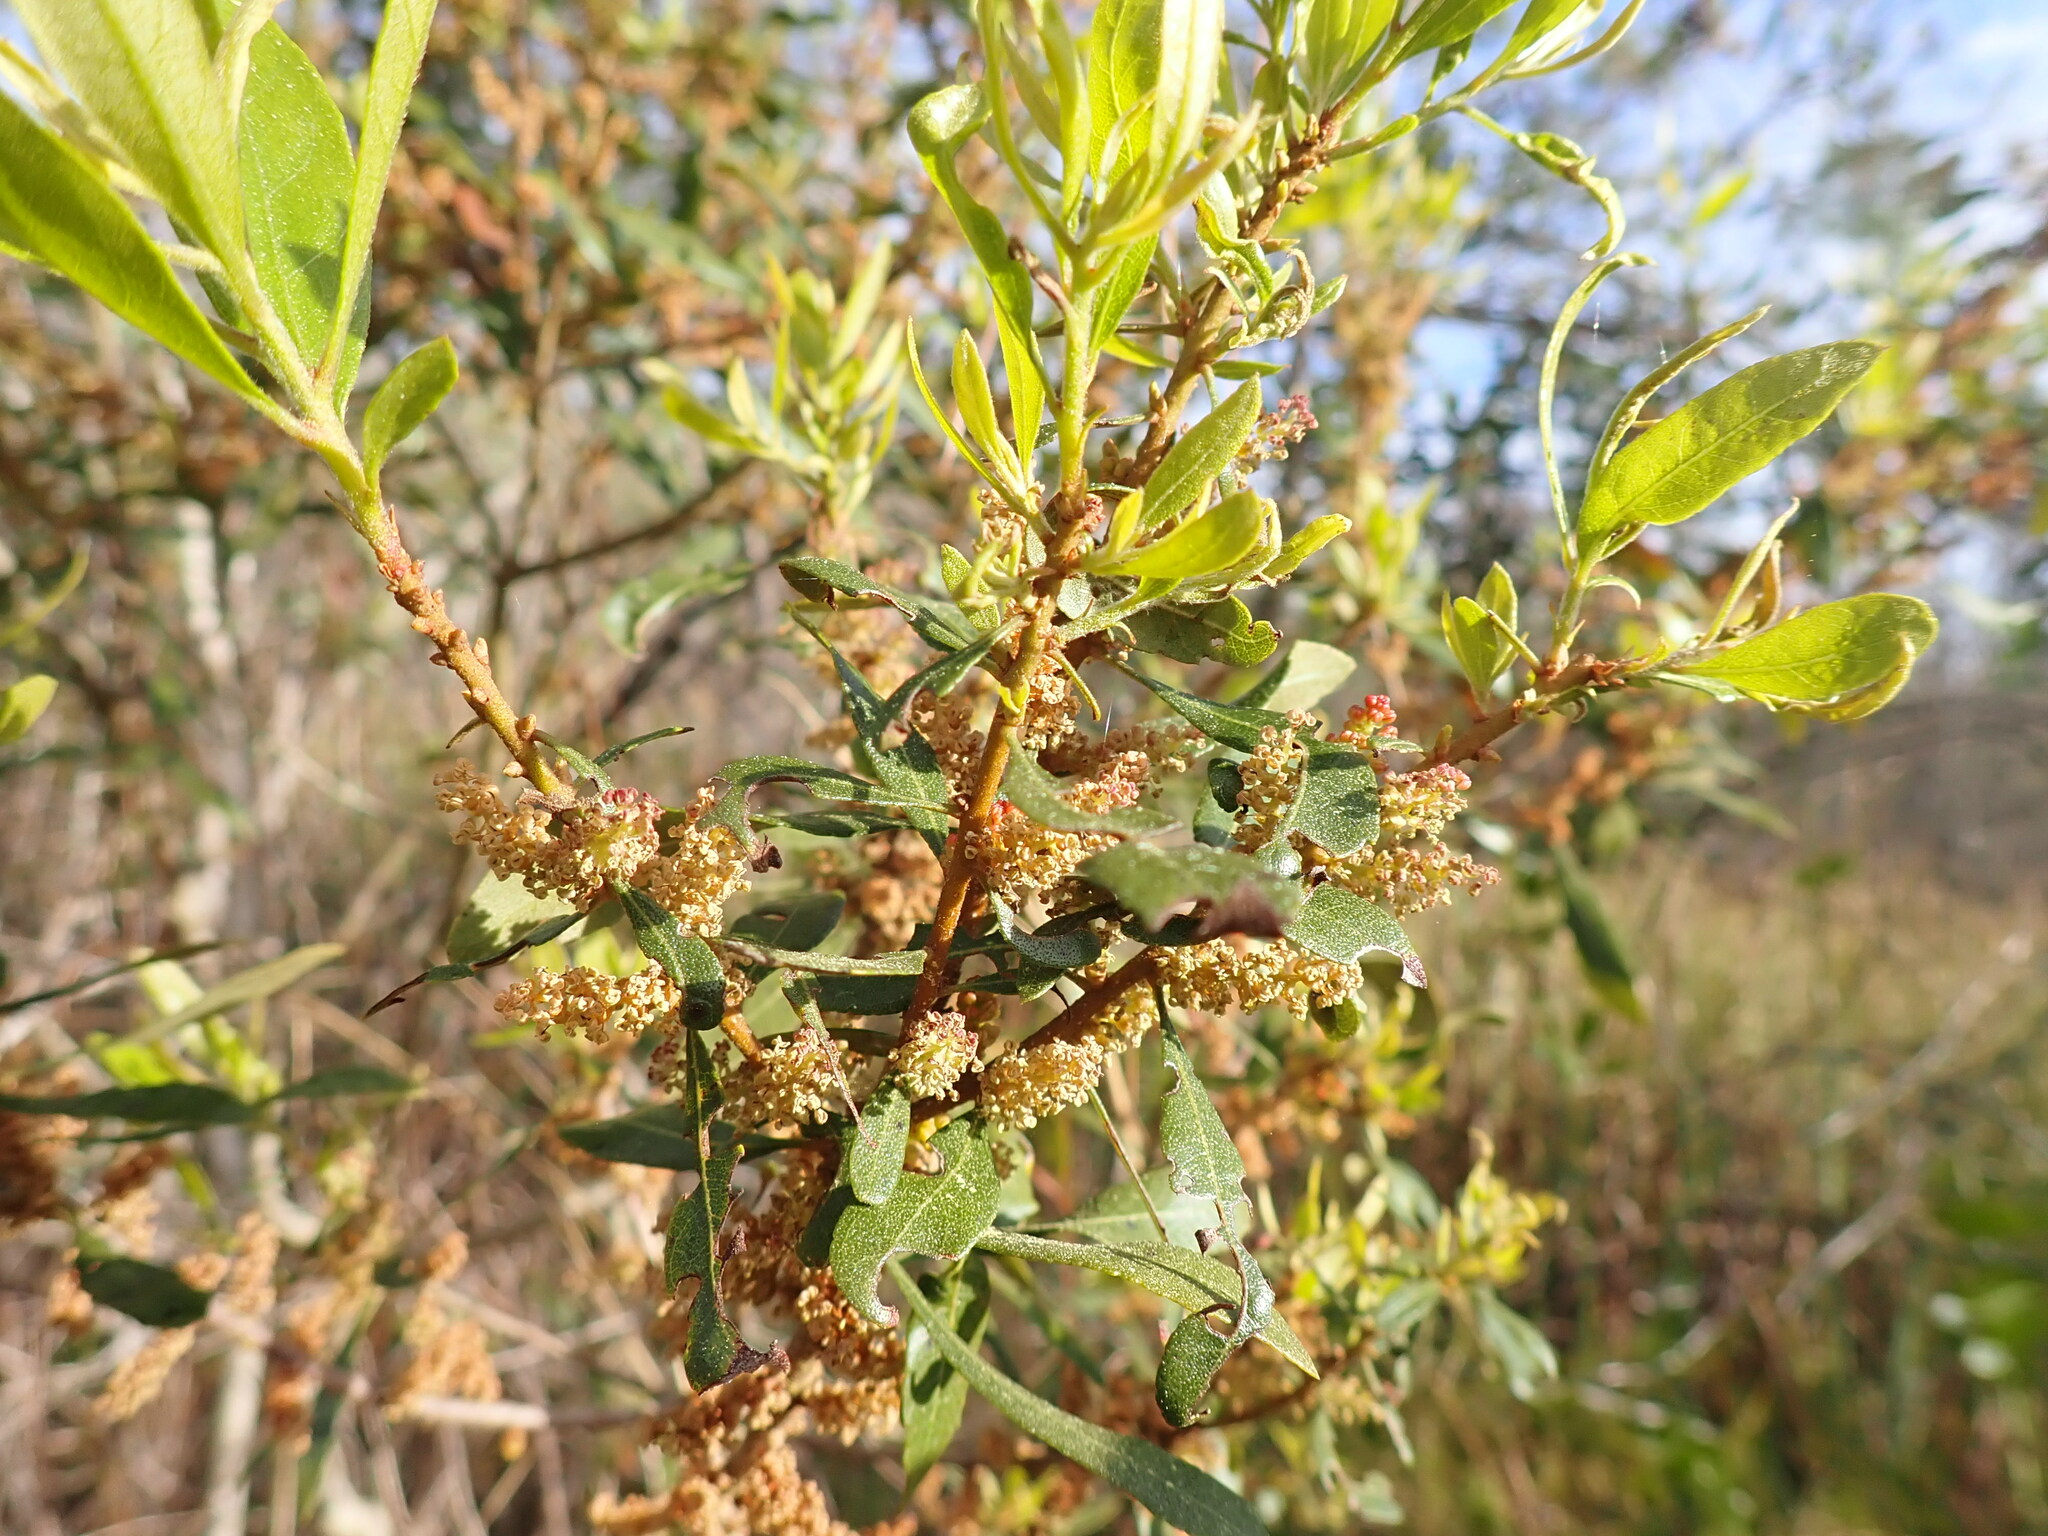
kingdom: Plantae
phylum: Tracheophyta
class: Magnoliopsida
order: Fagales
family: Myricaceae
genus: Morella
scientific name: Morella cerifera
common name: Wax myrtle
